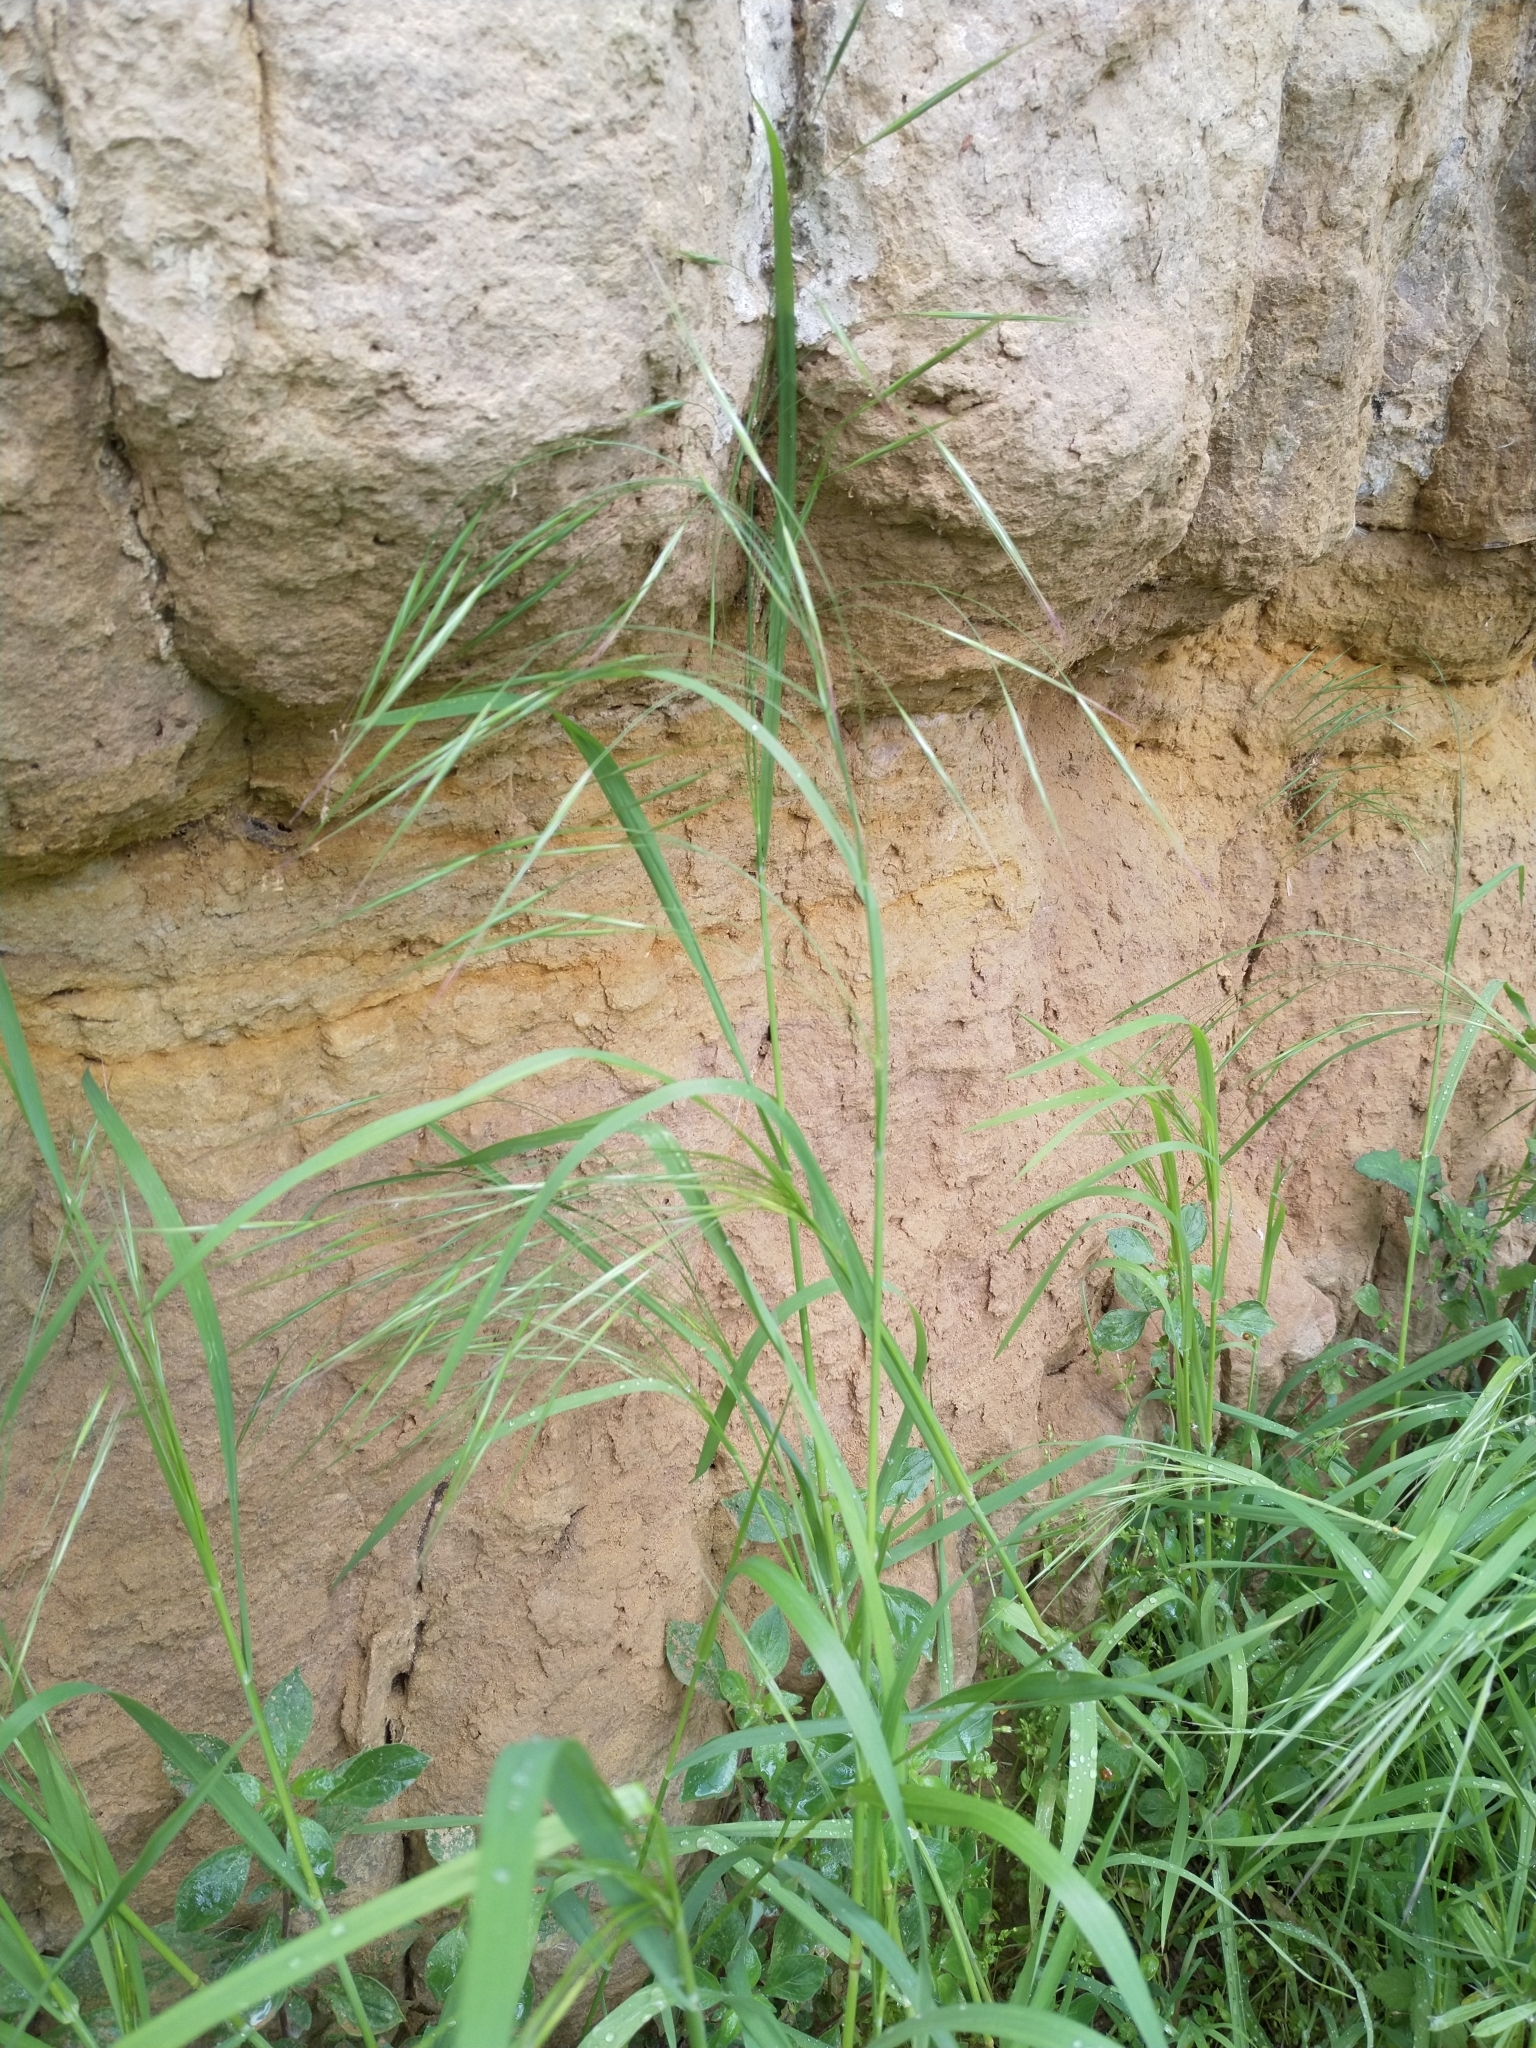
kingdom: Plantae
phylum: Tracheophyta
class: Liliopsida
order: Poales
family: Poaceae
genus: Bromus
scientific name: Bromus sterilis
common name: Poverty brome
